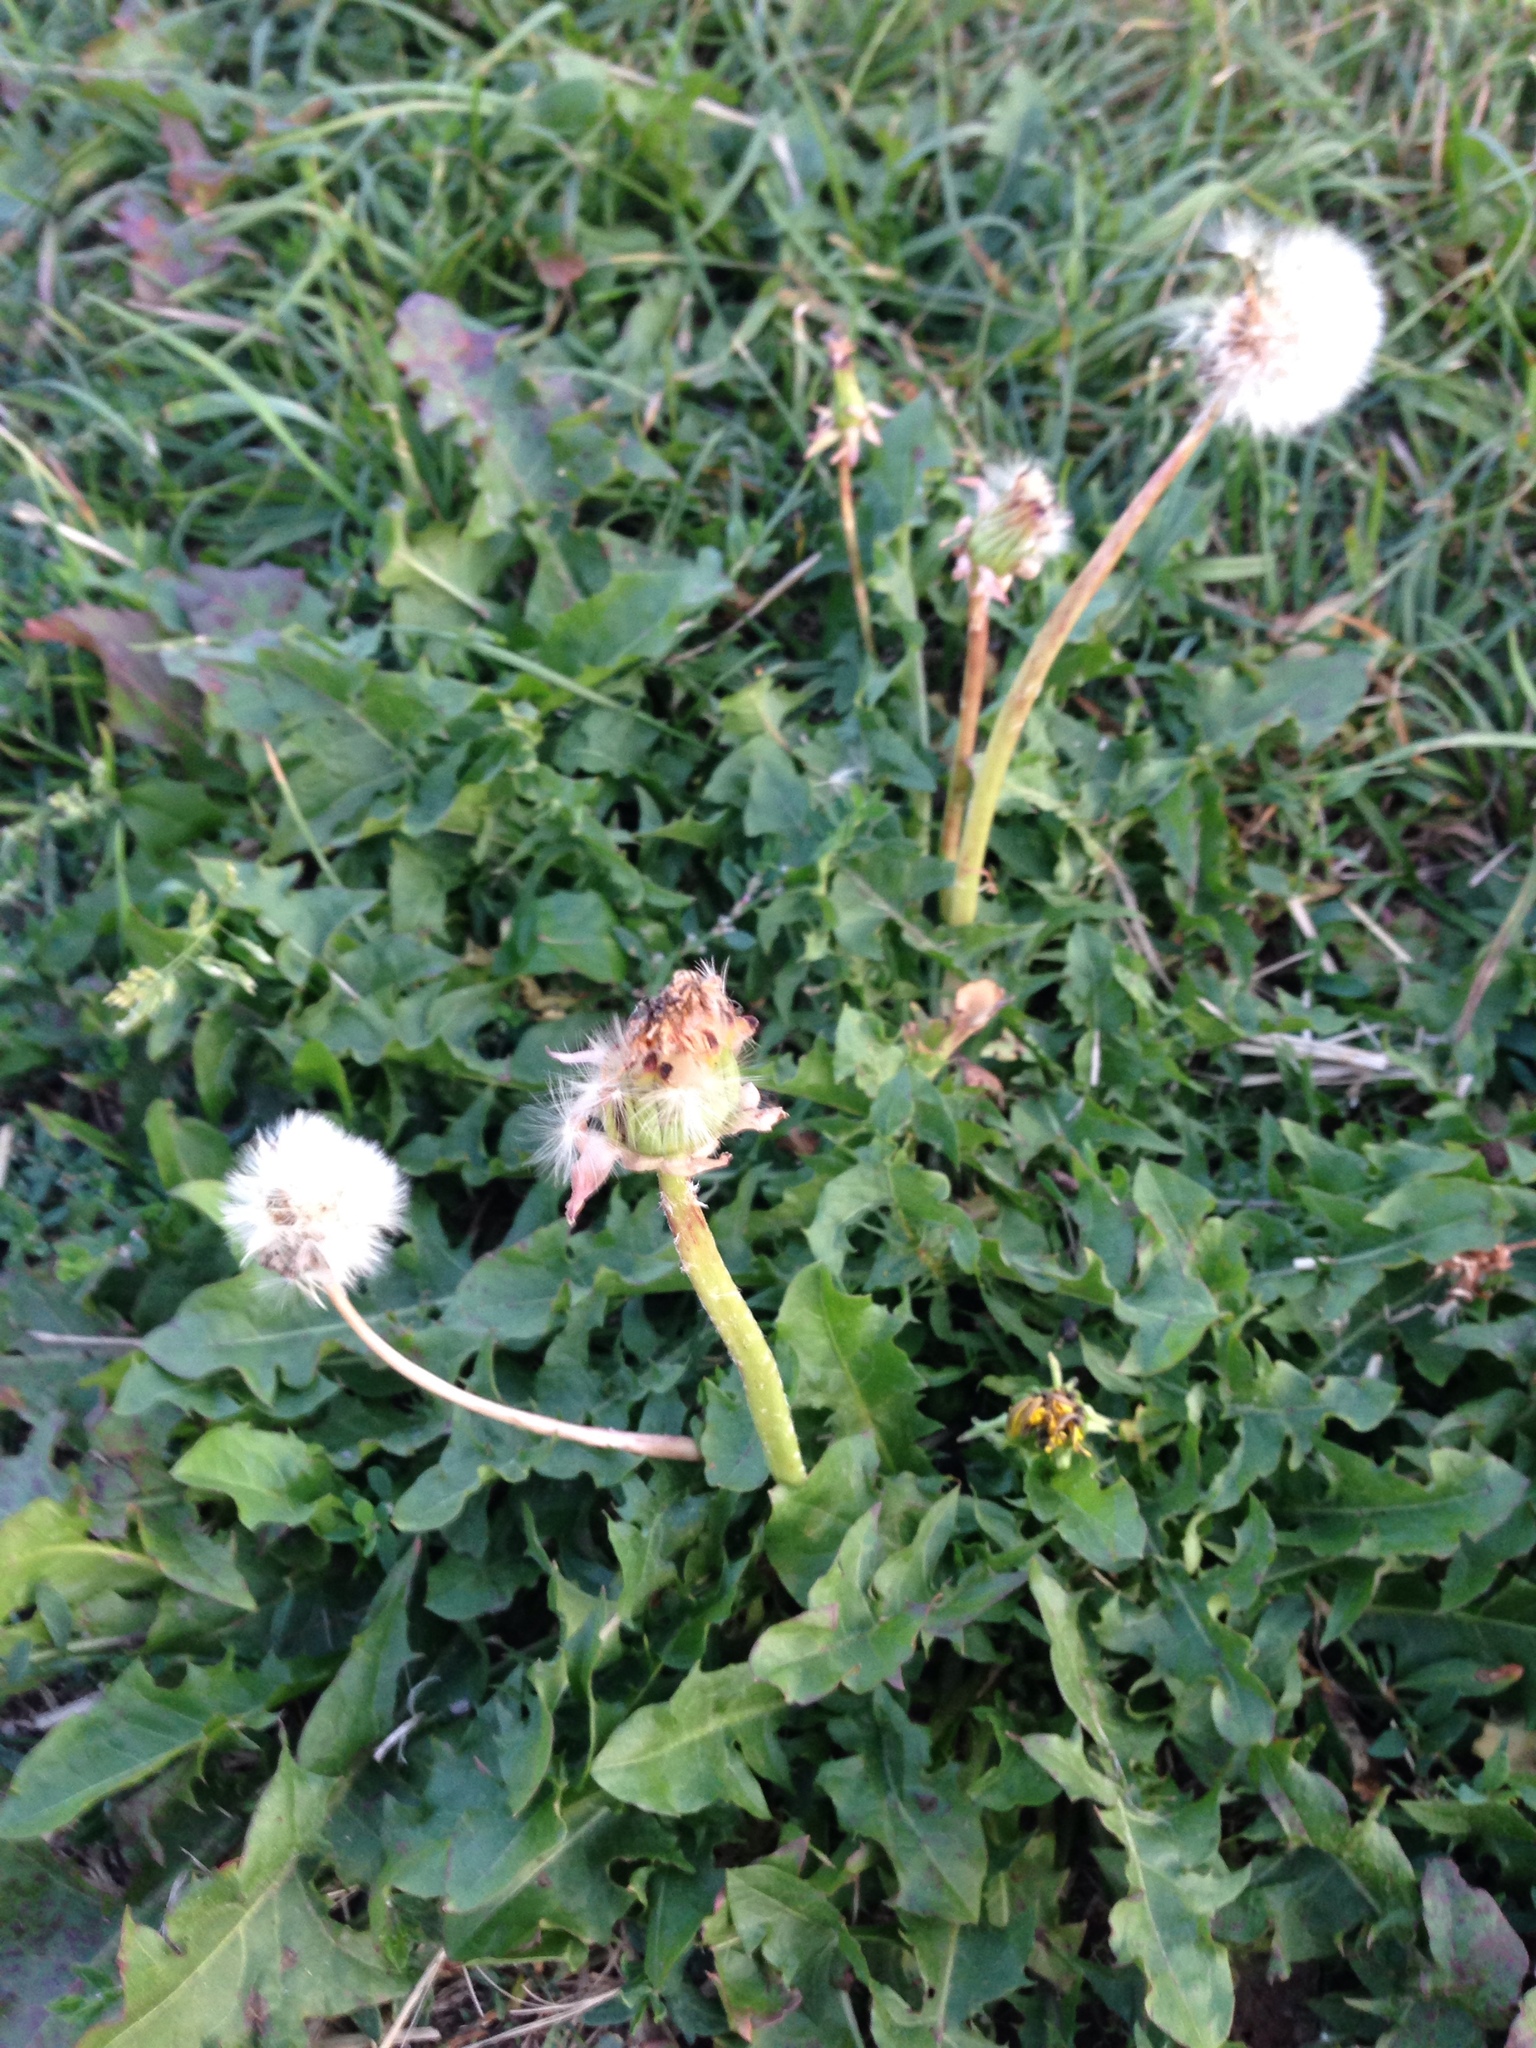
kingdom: Plantae
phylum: Tracheophyta
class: Magnoliopsida
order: Asterales
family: Asteraceae
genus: Taraxacum
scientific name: Taraxacum officinale
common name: Common dandelion
